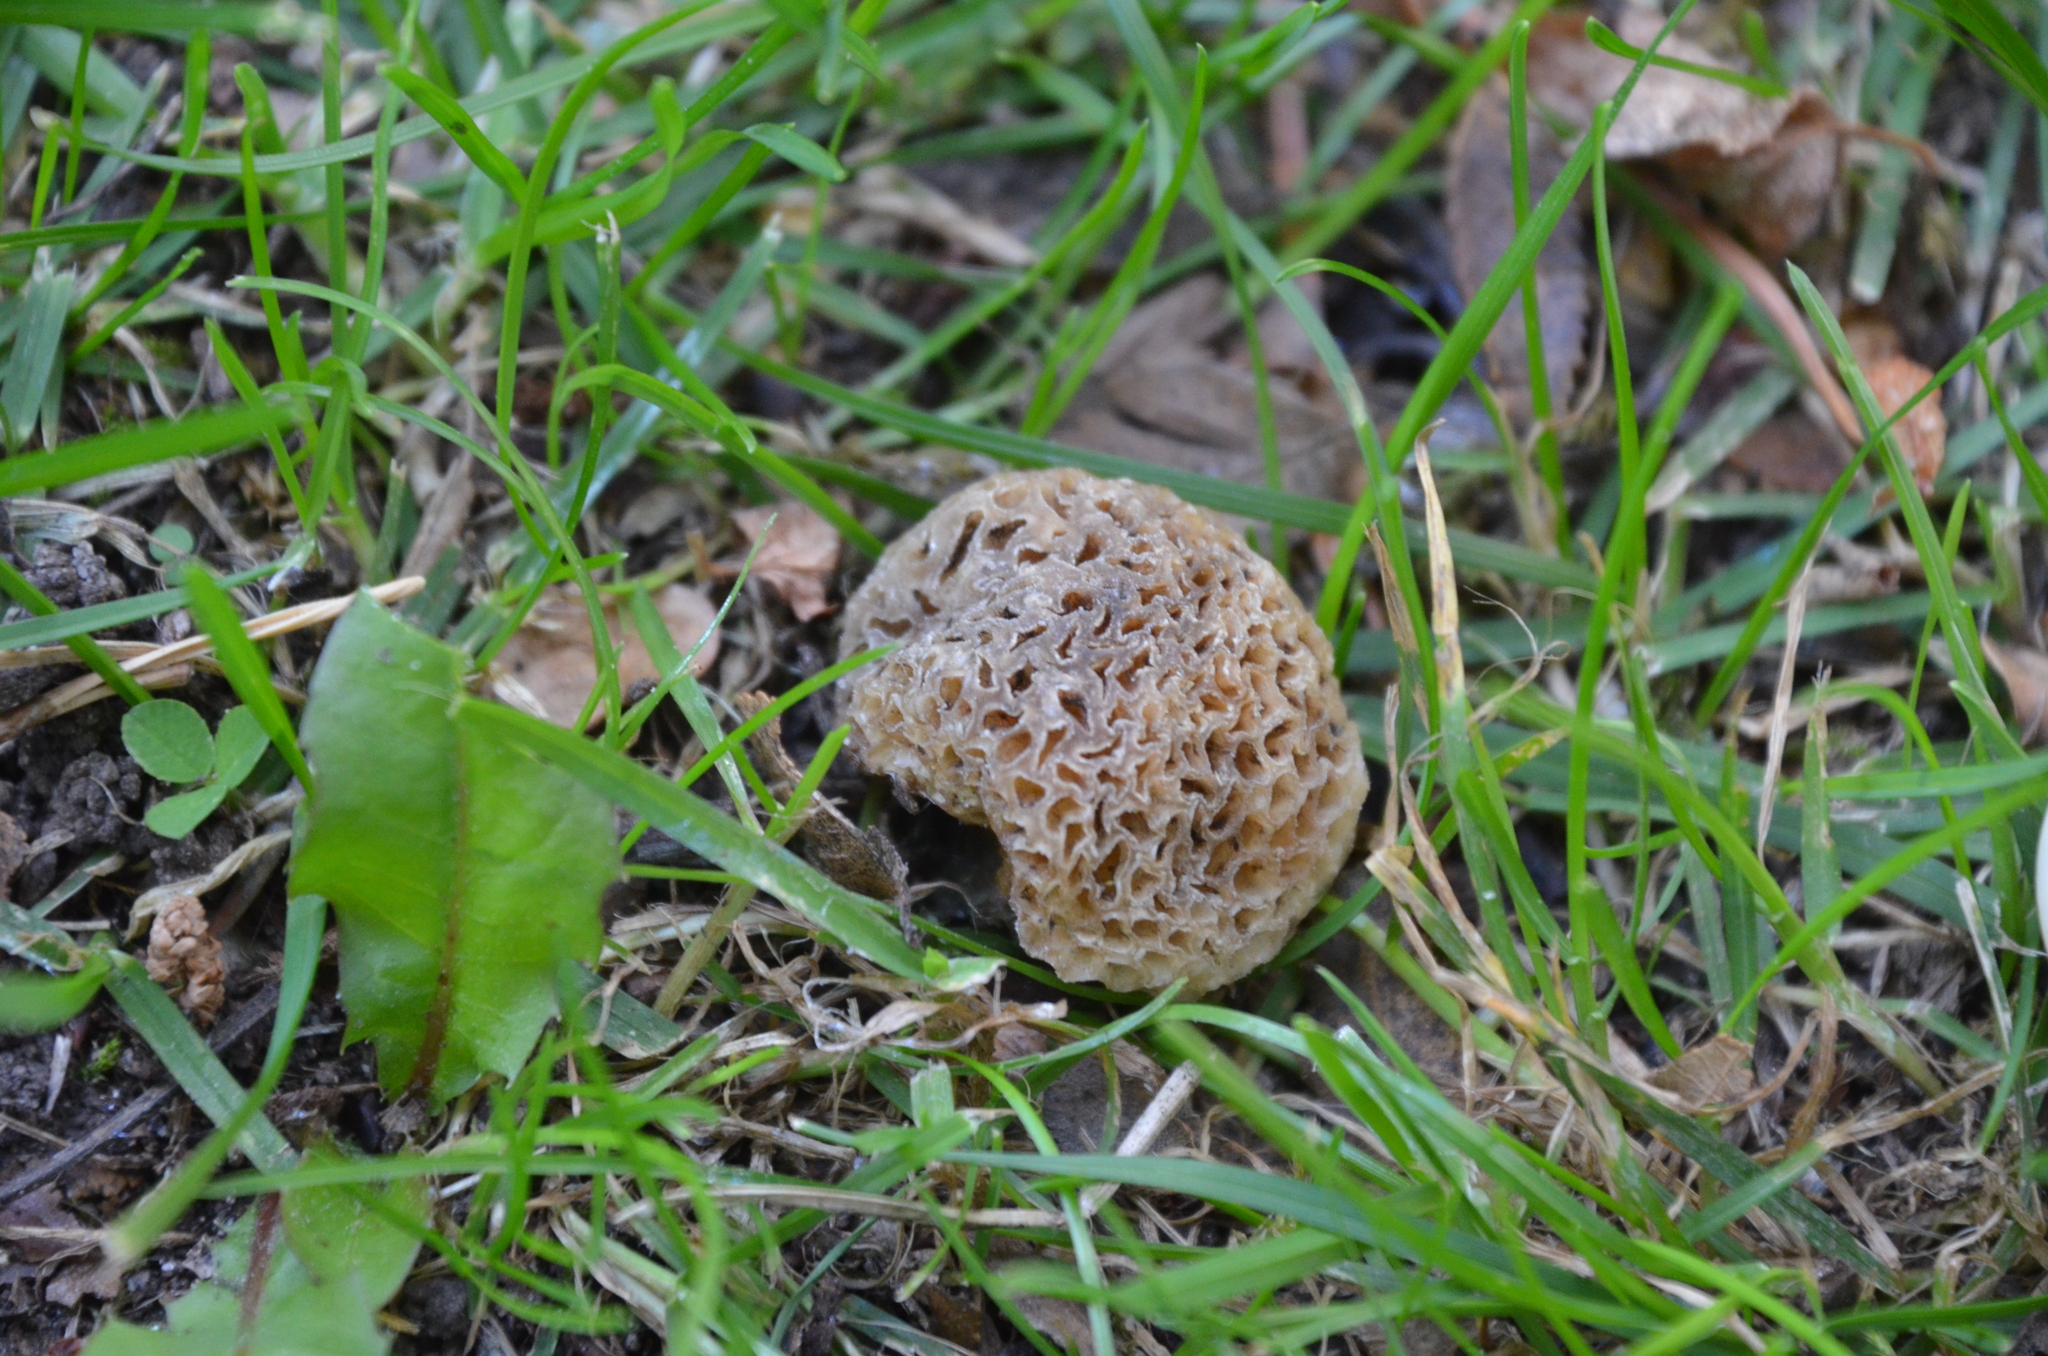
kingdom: Fungi
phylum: Ascomycota
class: Leotiomycetes
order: Cyttariales
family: Cyttariaceae
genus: Cyttaria
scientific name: Cyttaria hariotii
